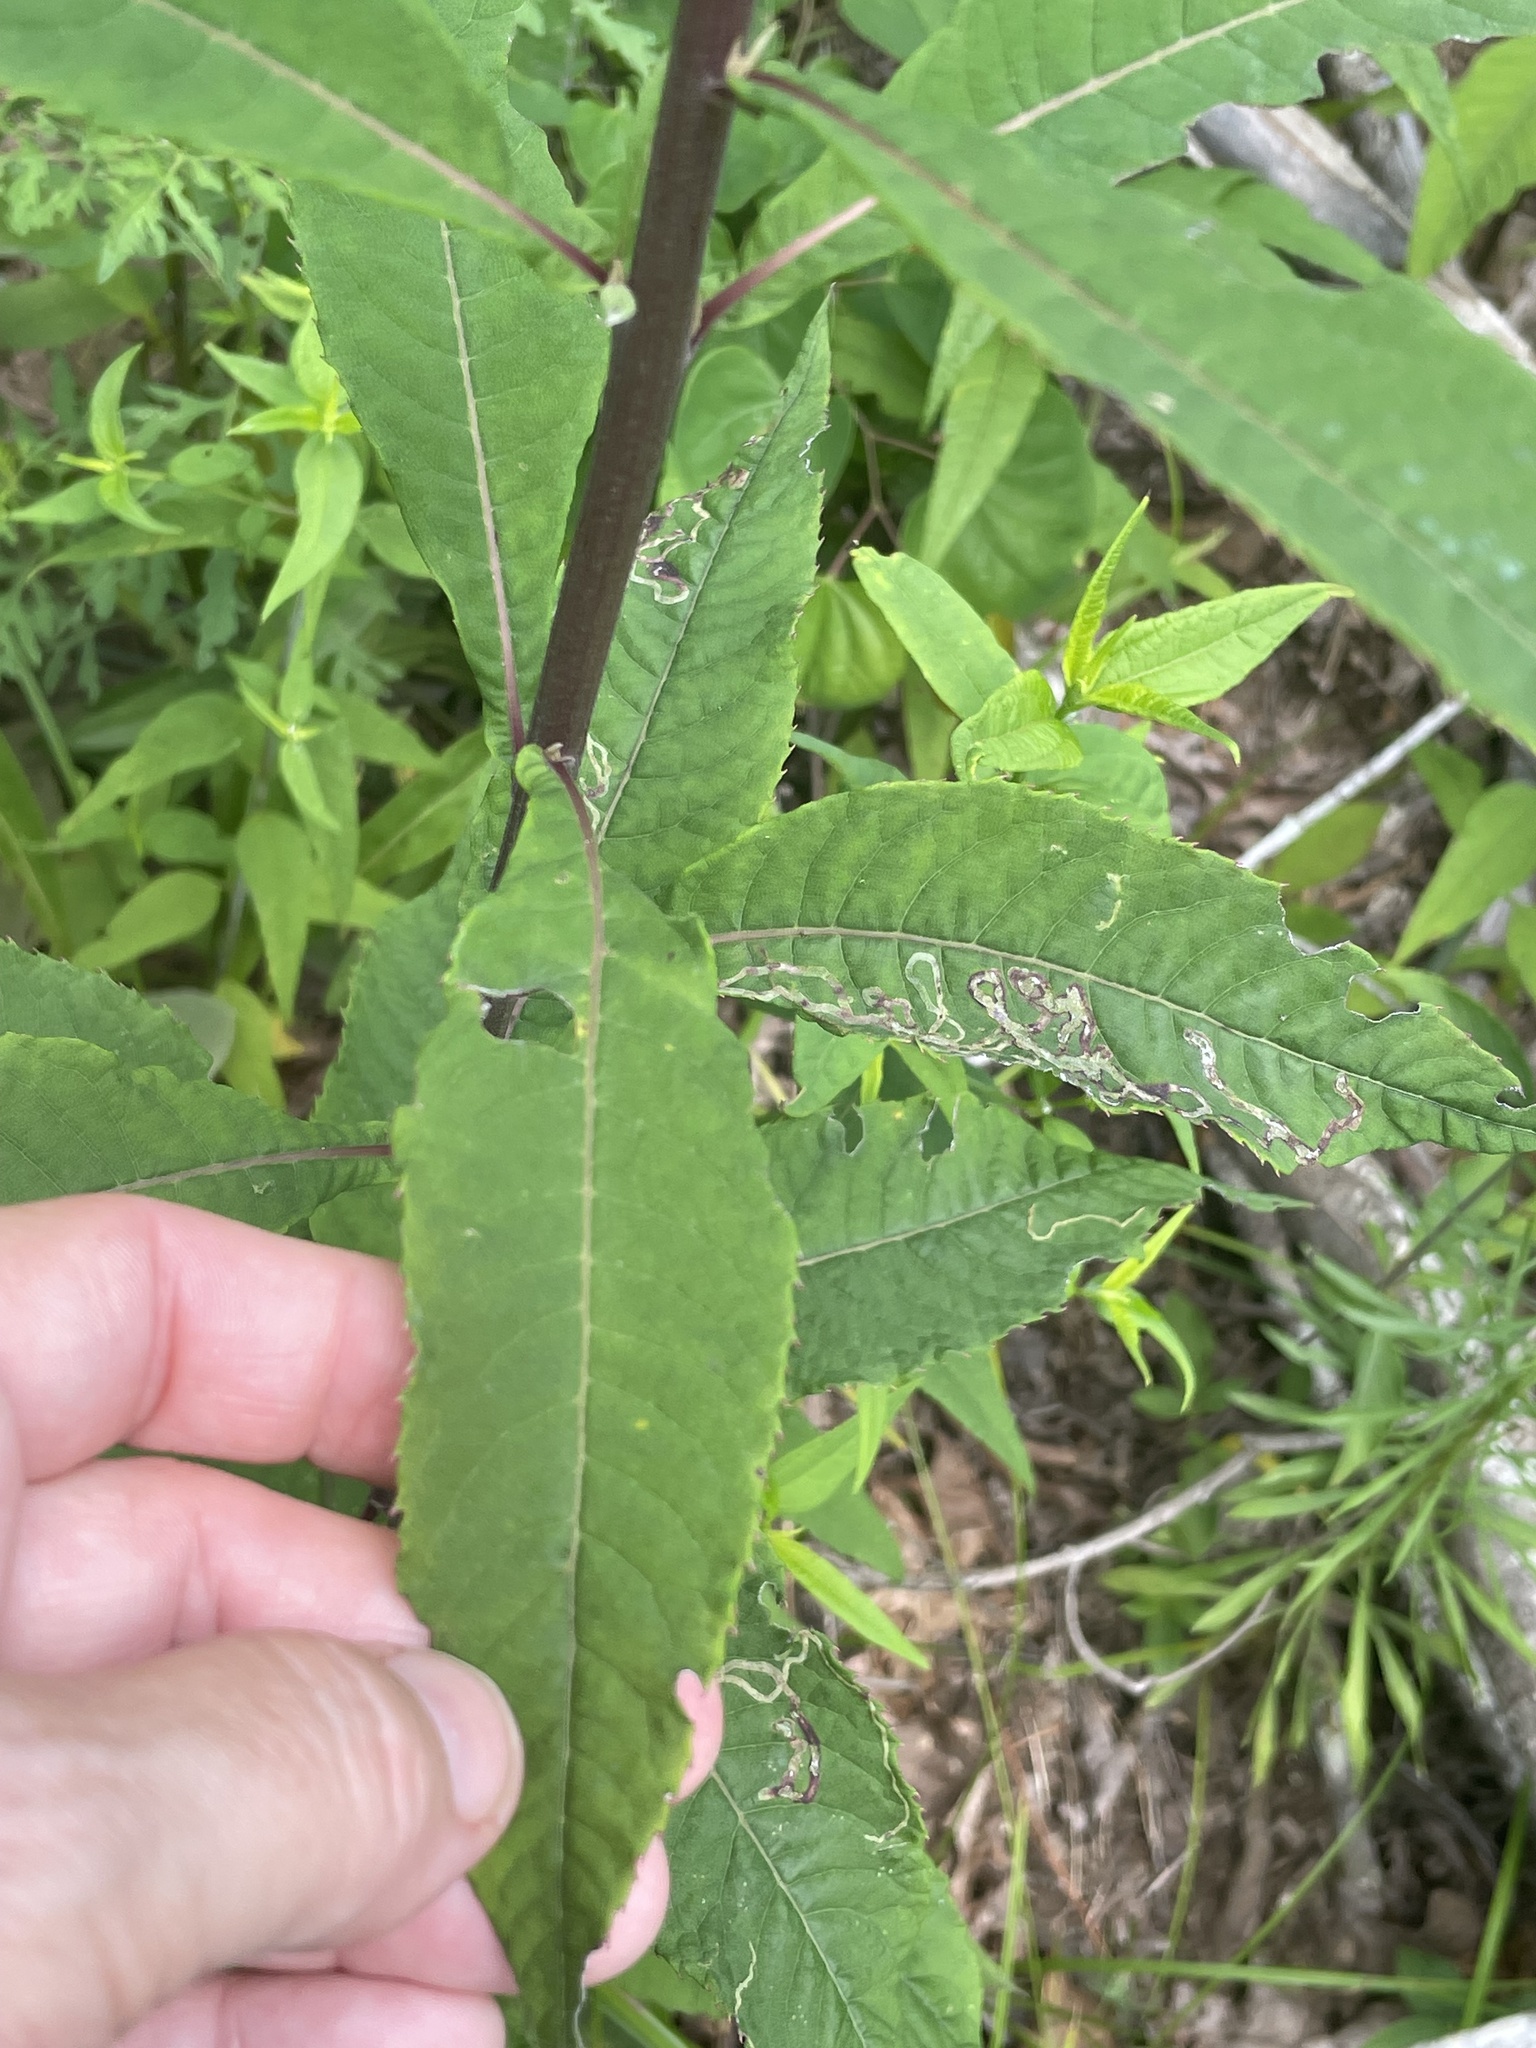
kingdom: Plantae
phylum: Tracheophyta
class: Magnoliopsida
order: Asterales
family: Asteraceae
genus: Vernonia
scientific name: Vernonia noveboracensis
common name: New york ironweed
